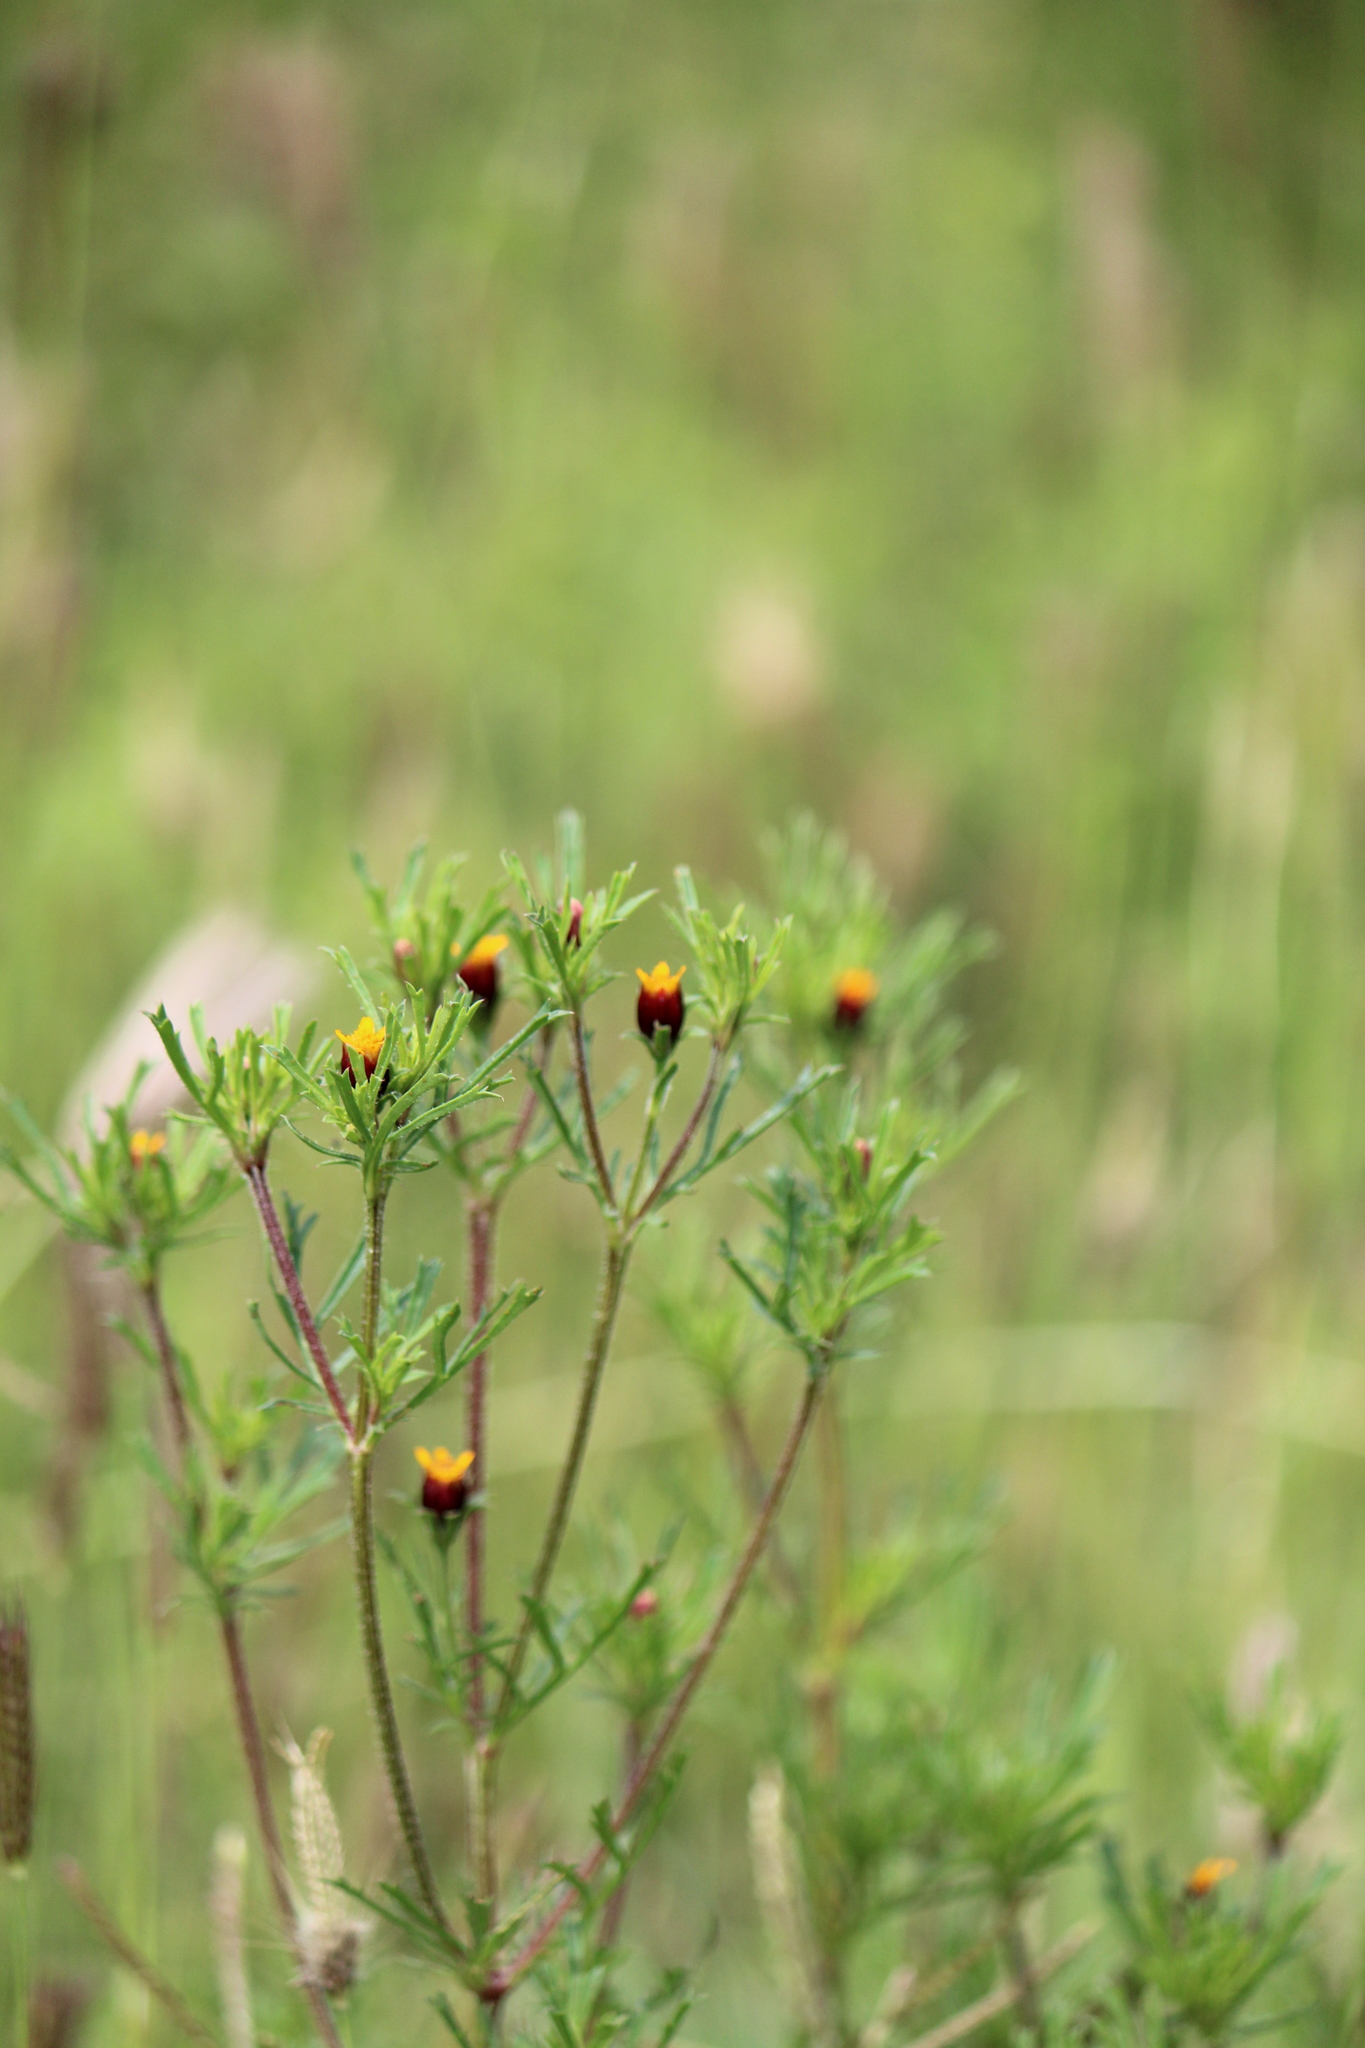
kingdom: Plantae
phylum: Tracheophyta
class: Magnoliopsida
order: Asterales
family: Asteraceae
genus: Dyssodia
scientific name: Dyssodia papposa
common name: Dogweed
